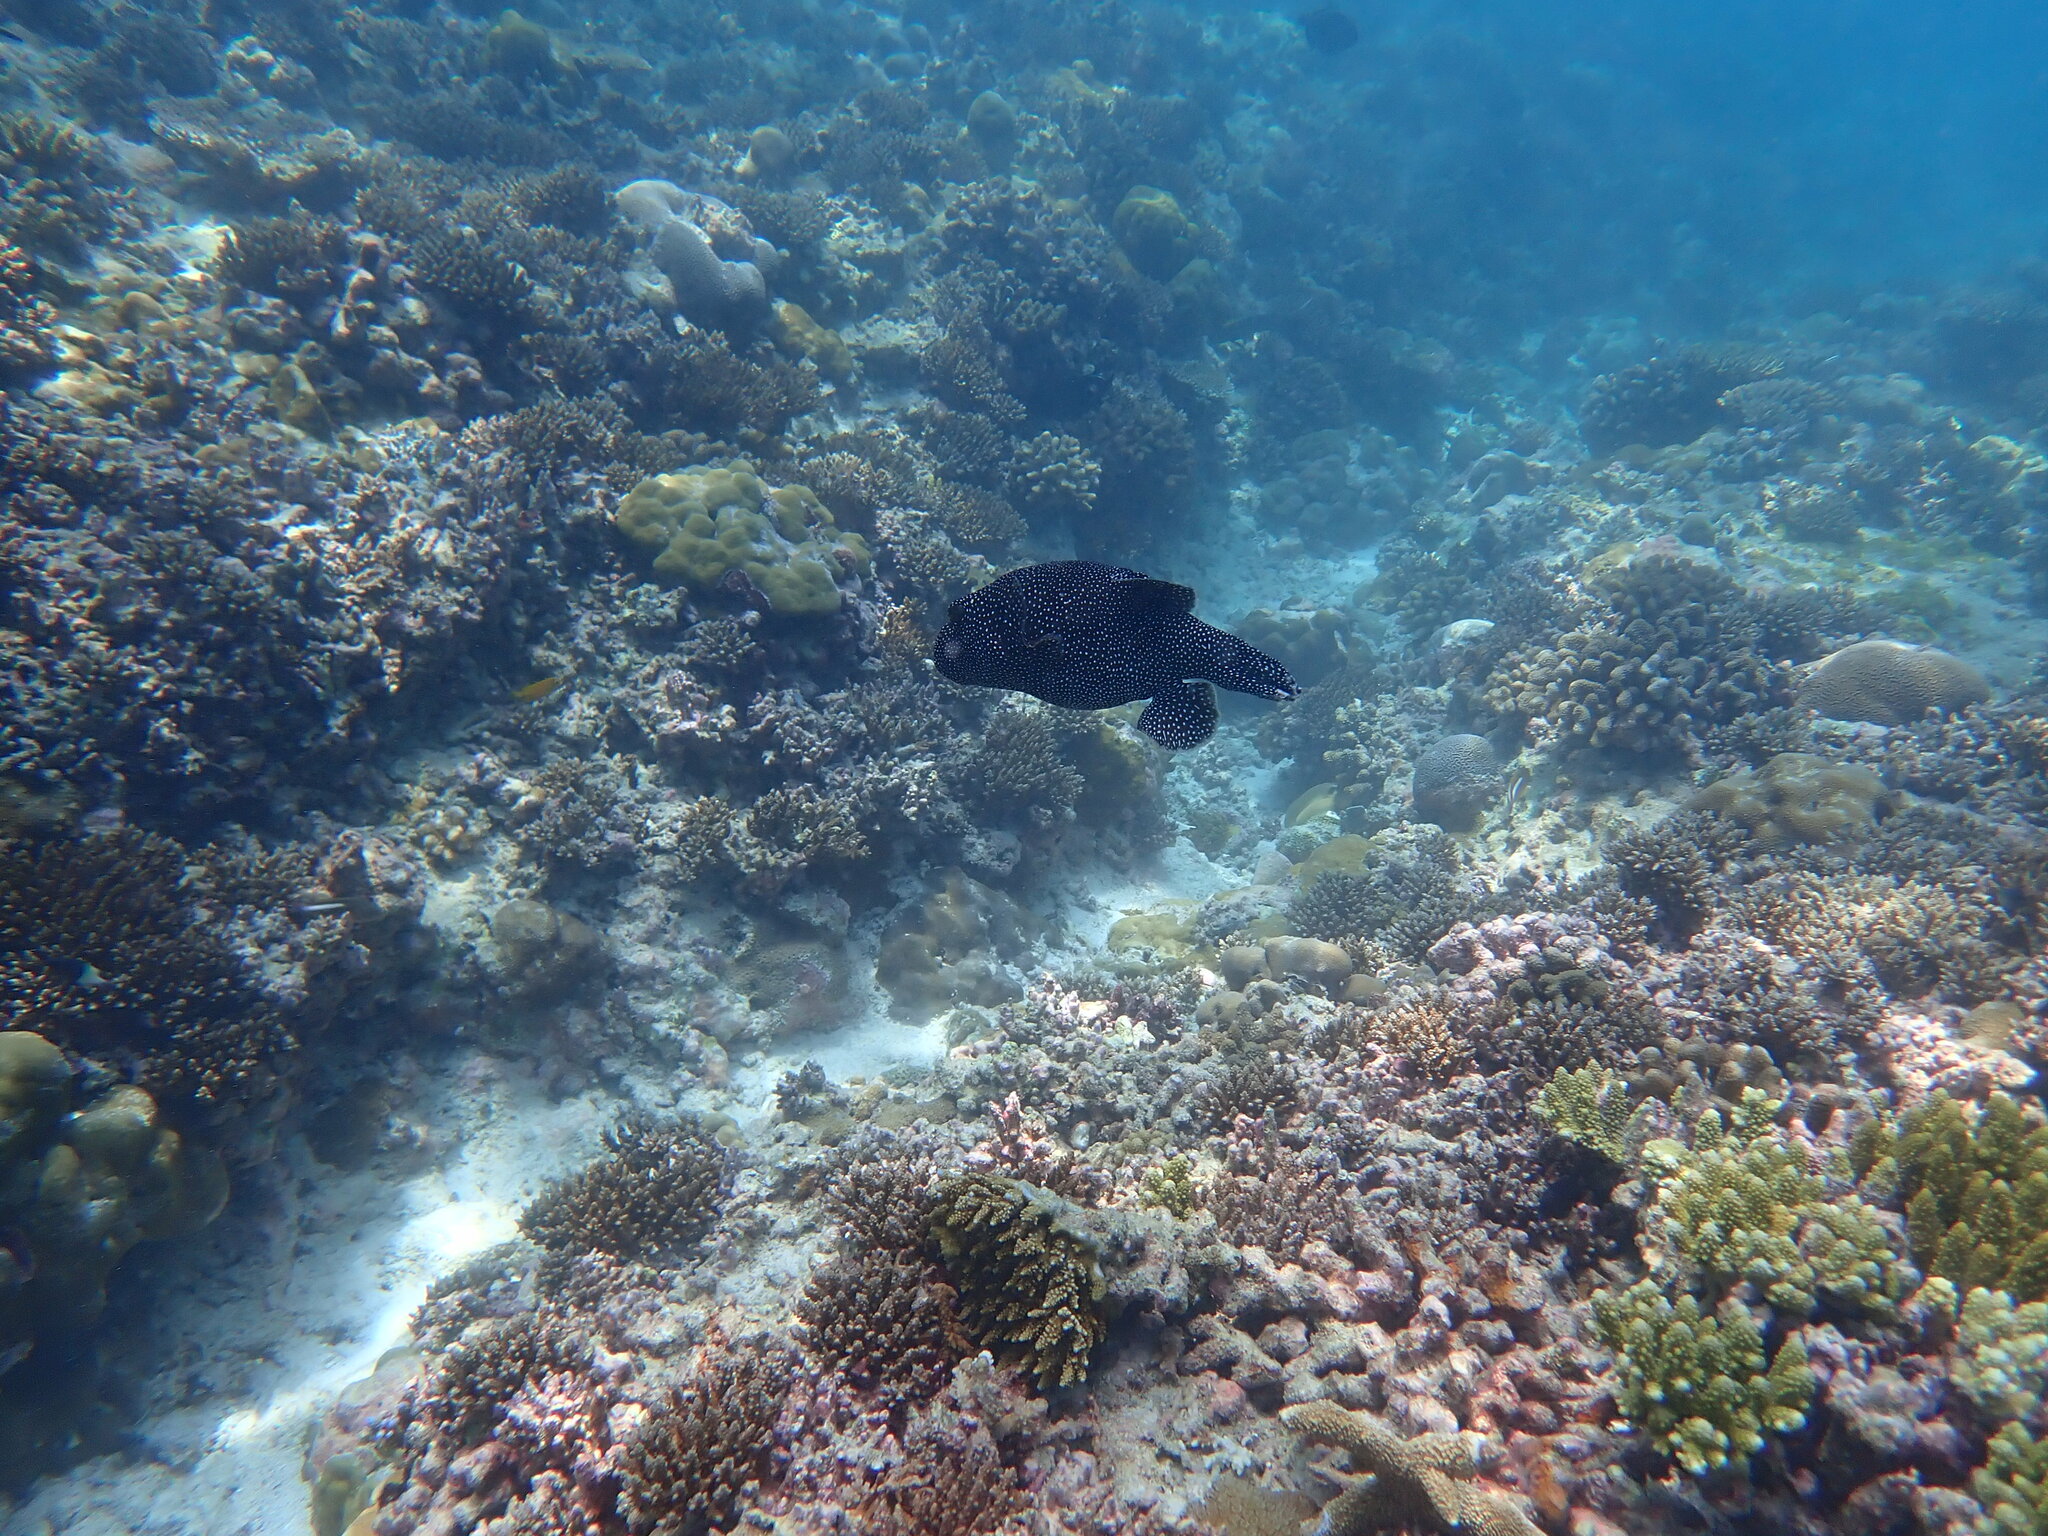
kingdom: Animalia
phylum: Chordata
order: Tetraodontiformes
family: Tetraodontidae
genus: Arothron
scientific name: Arothron meleagris
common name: Guinea-fowl pufferfish
